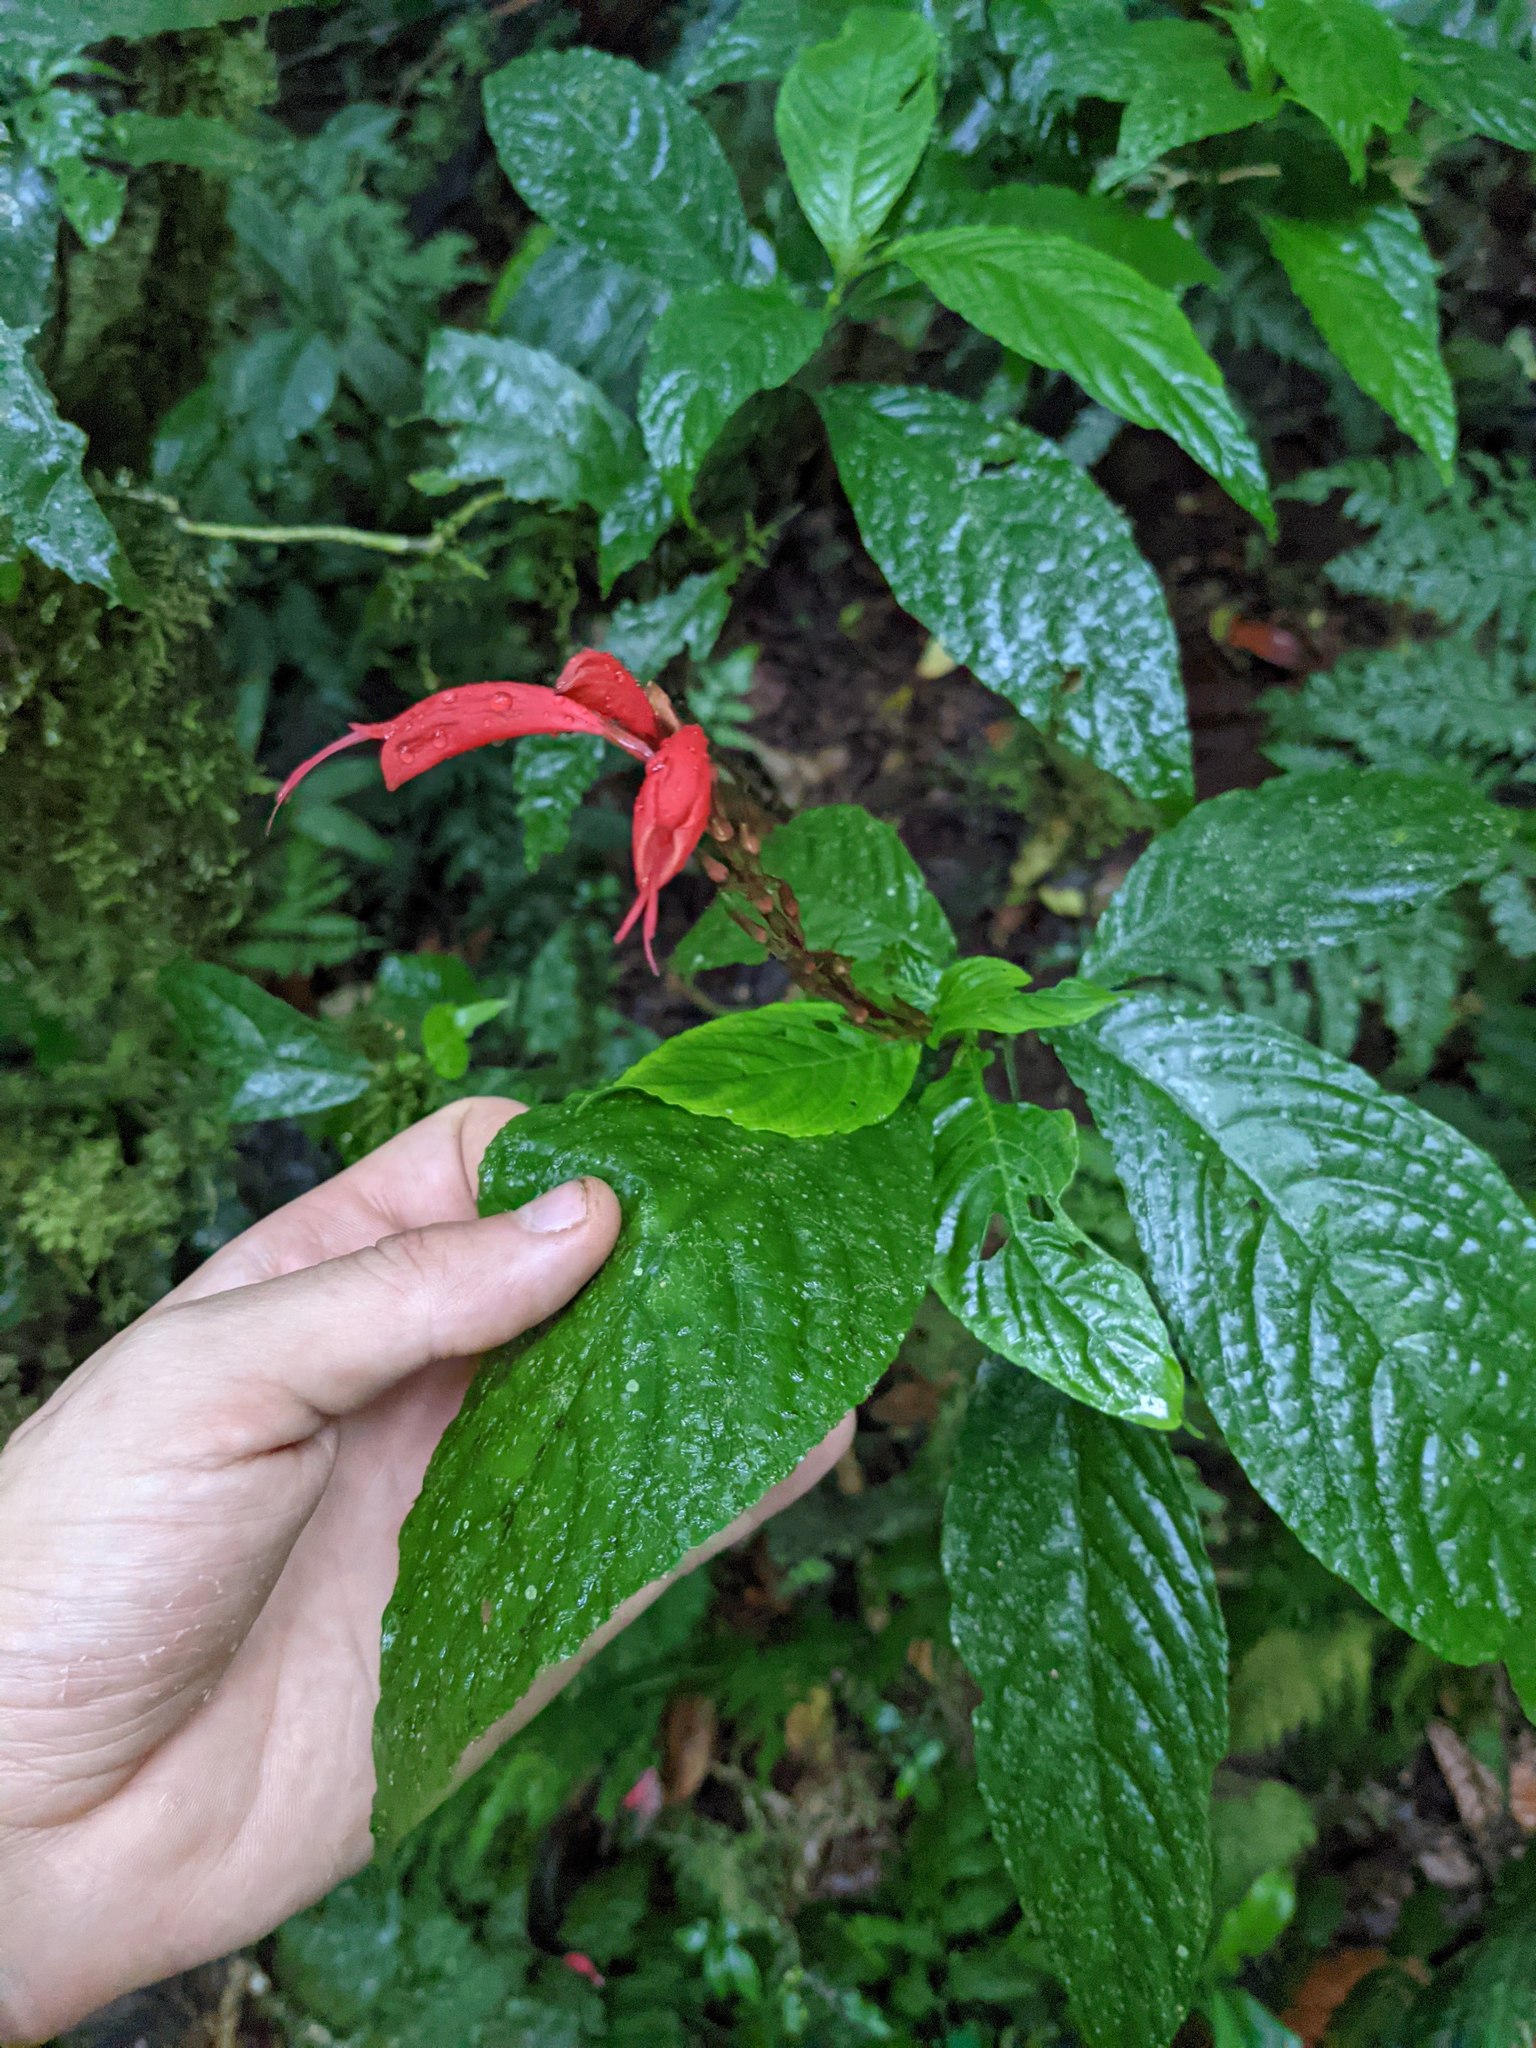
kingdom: Plantae
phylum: Tracheophyta
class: Magnoliopsida
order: Lamiales
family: Acanthaceae
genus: Stenostephanus
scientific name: Stenostephanus leiorhachis
